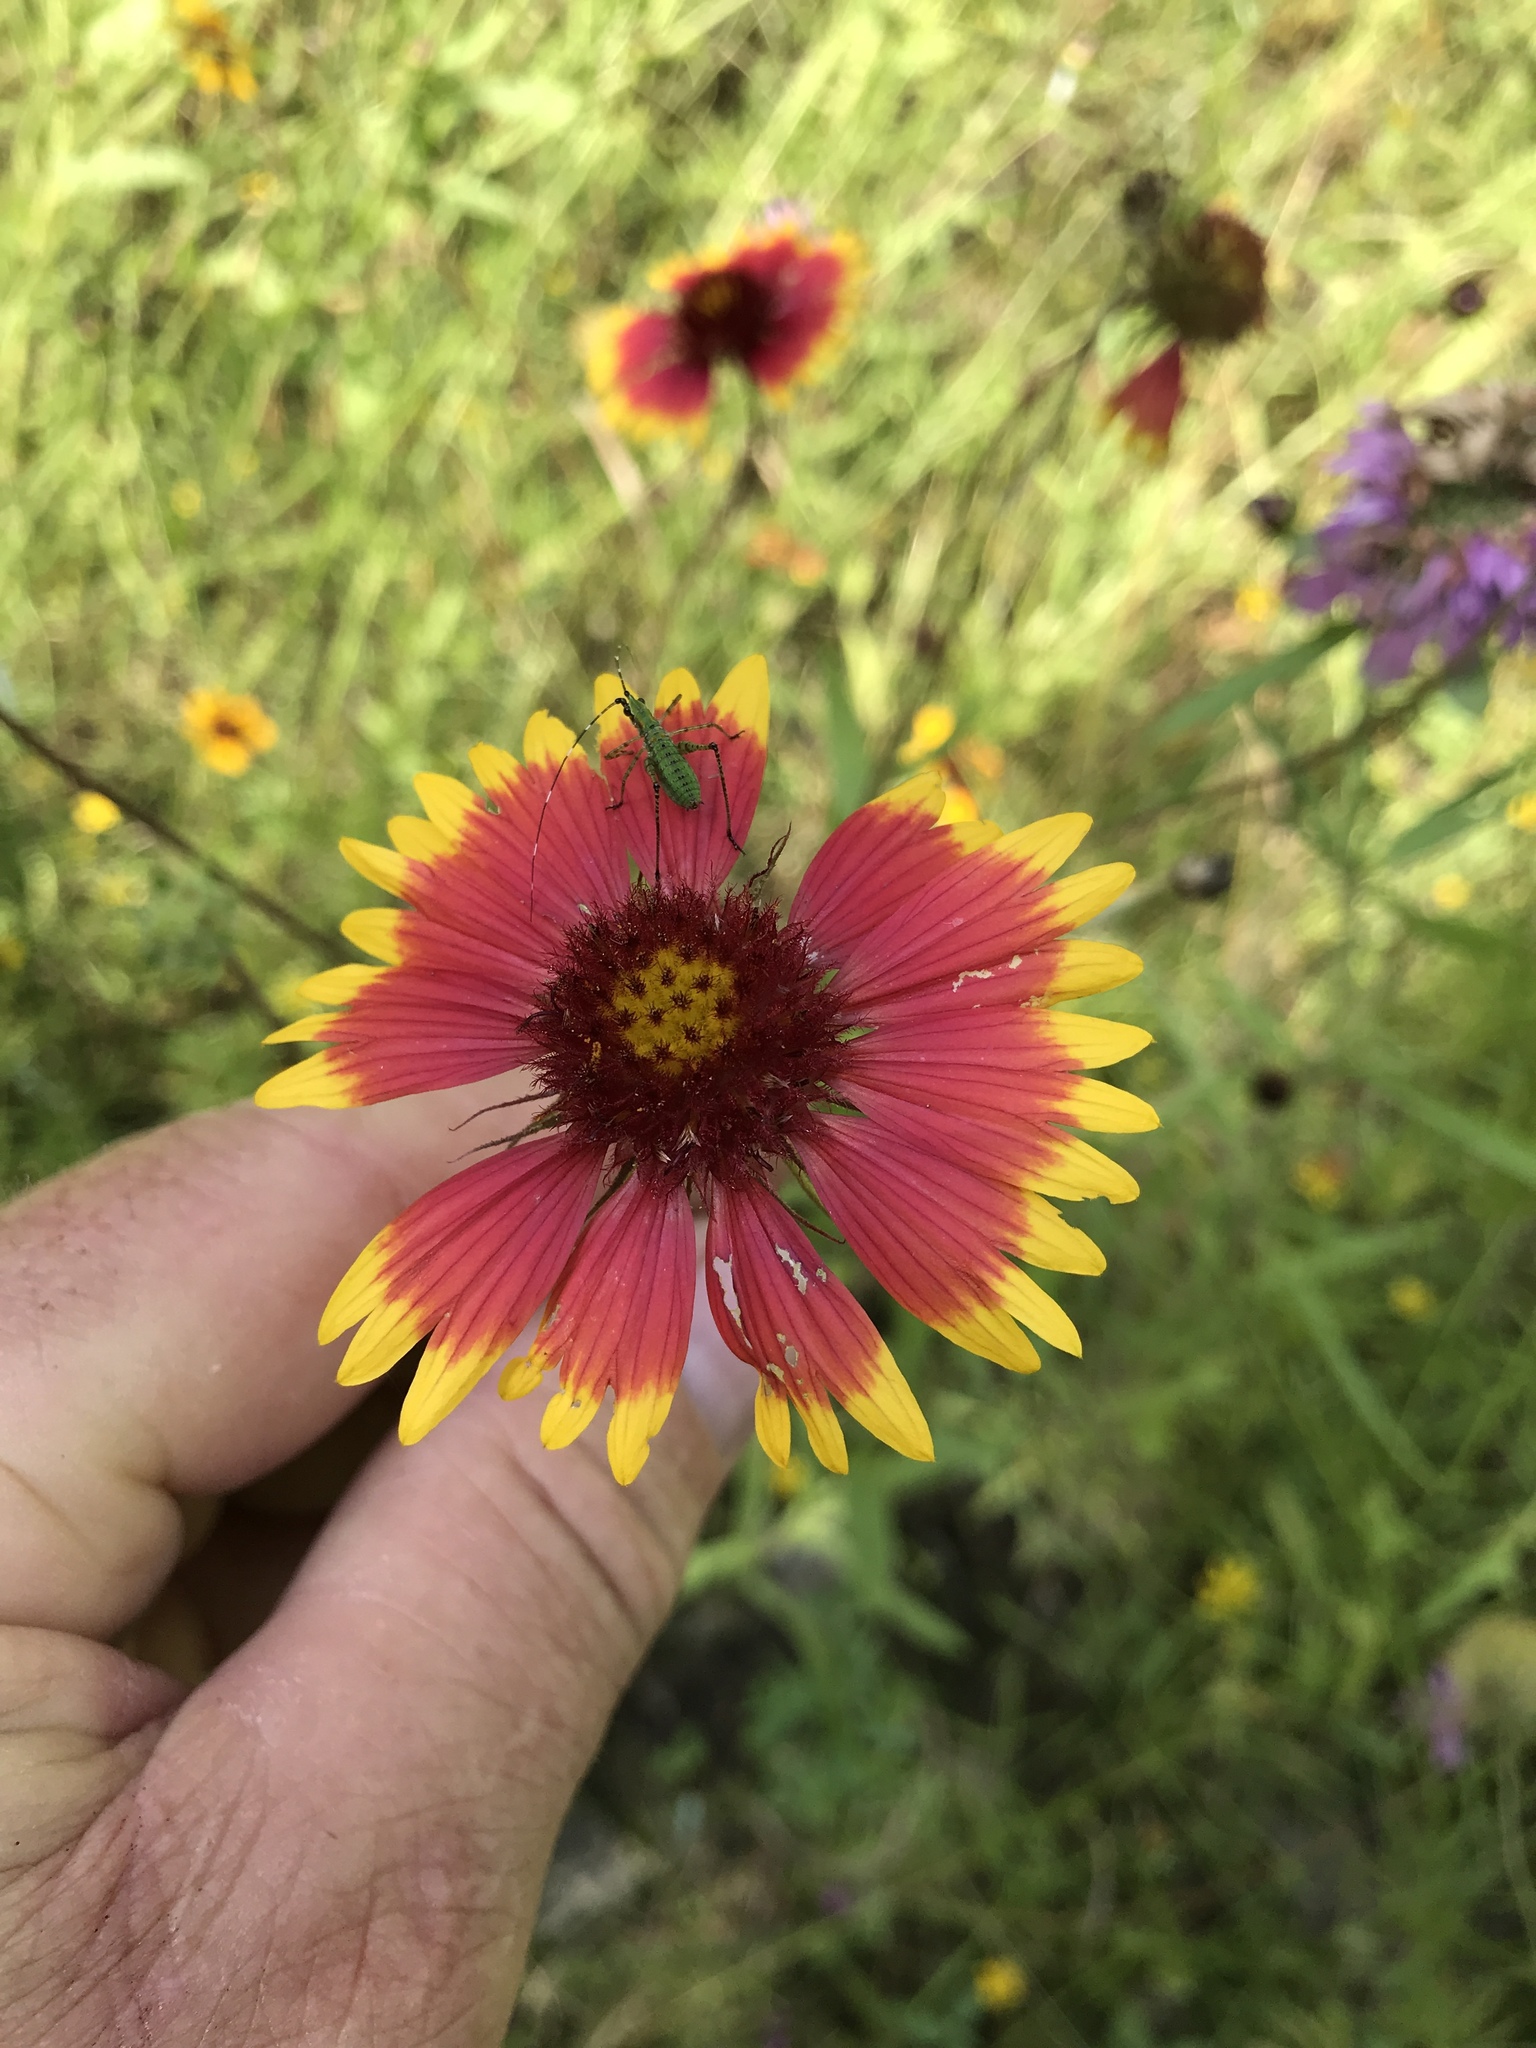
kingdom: Plantae
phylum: Tracheophyta
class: Magnoliopsida
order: Asterales
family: Asteraceae
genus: Gaillardia
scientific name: Gaillardia pulchella
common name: Firewheel
